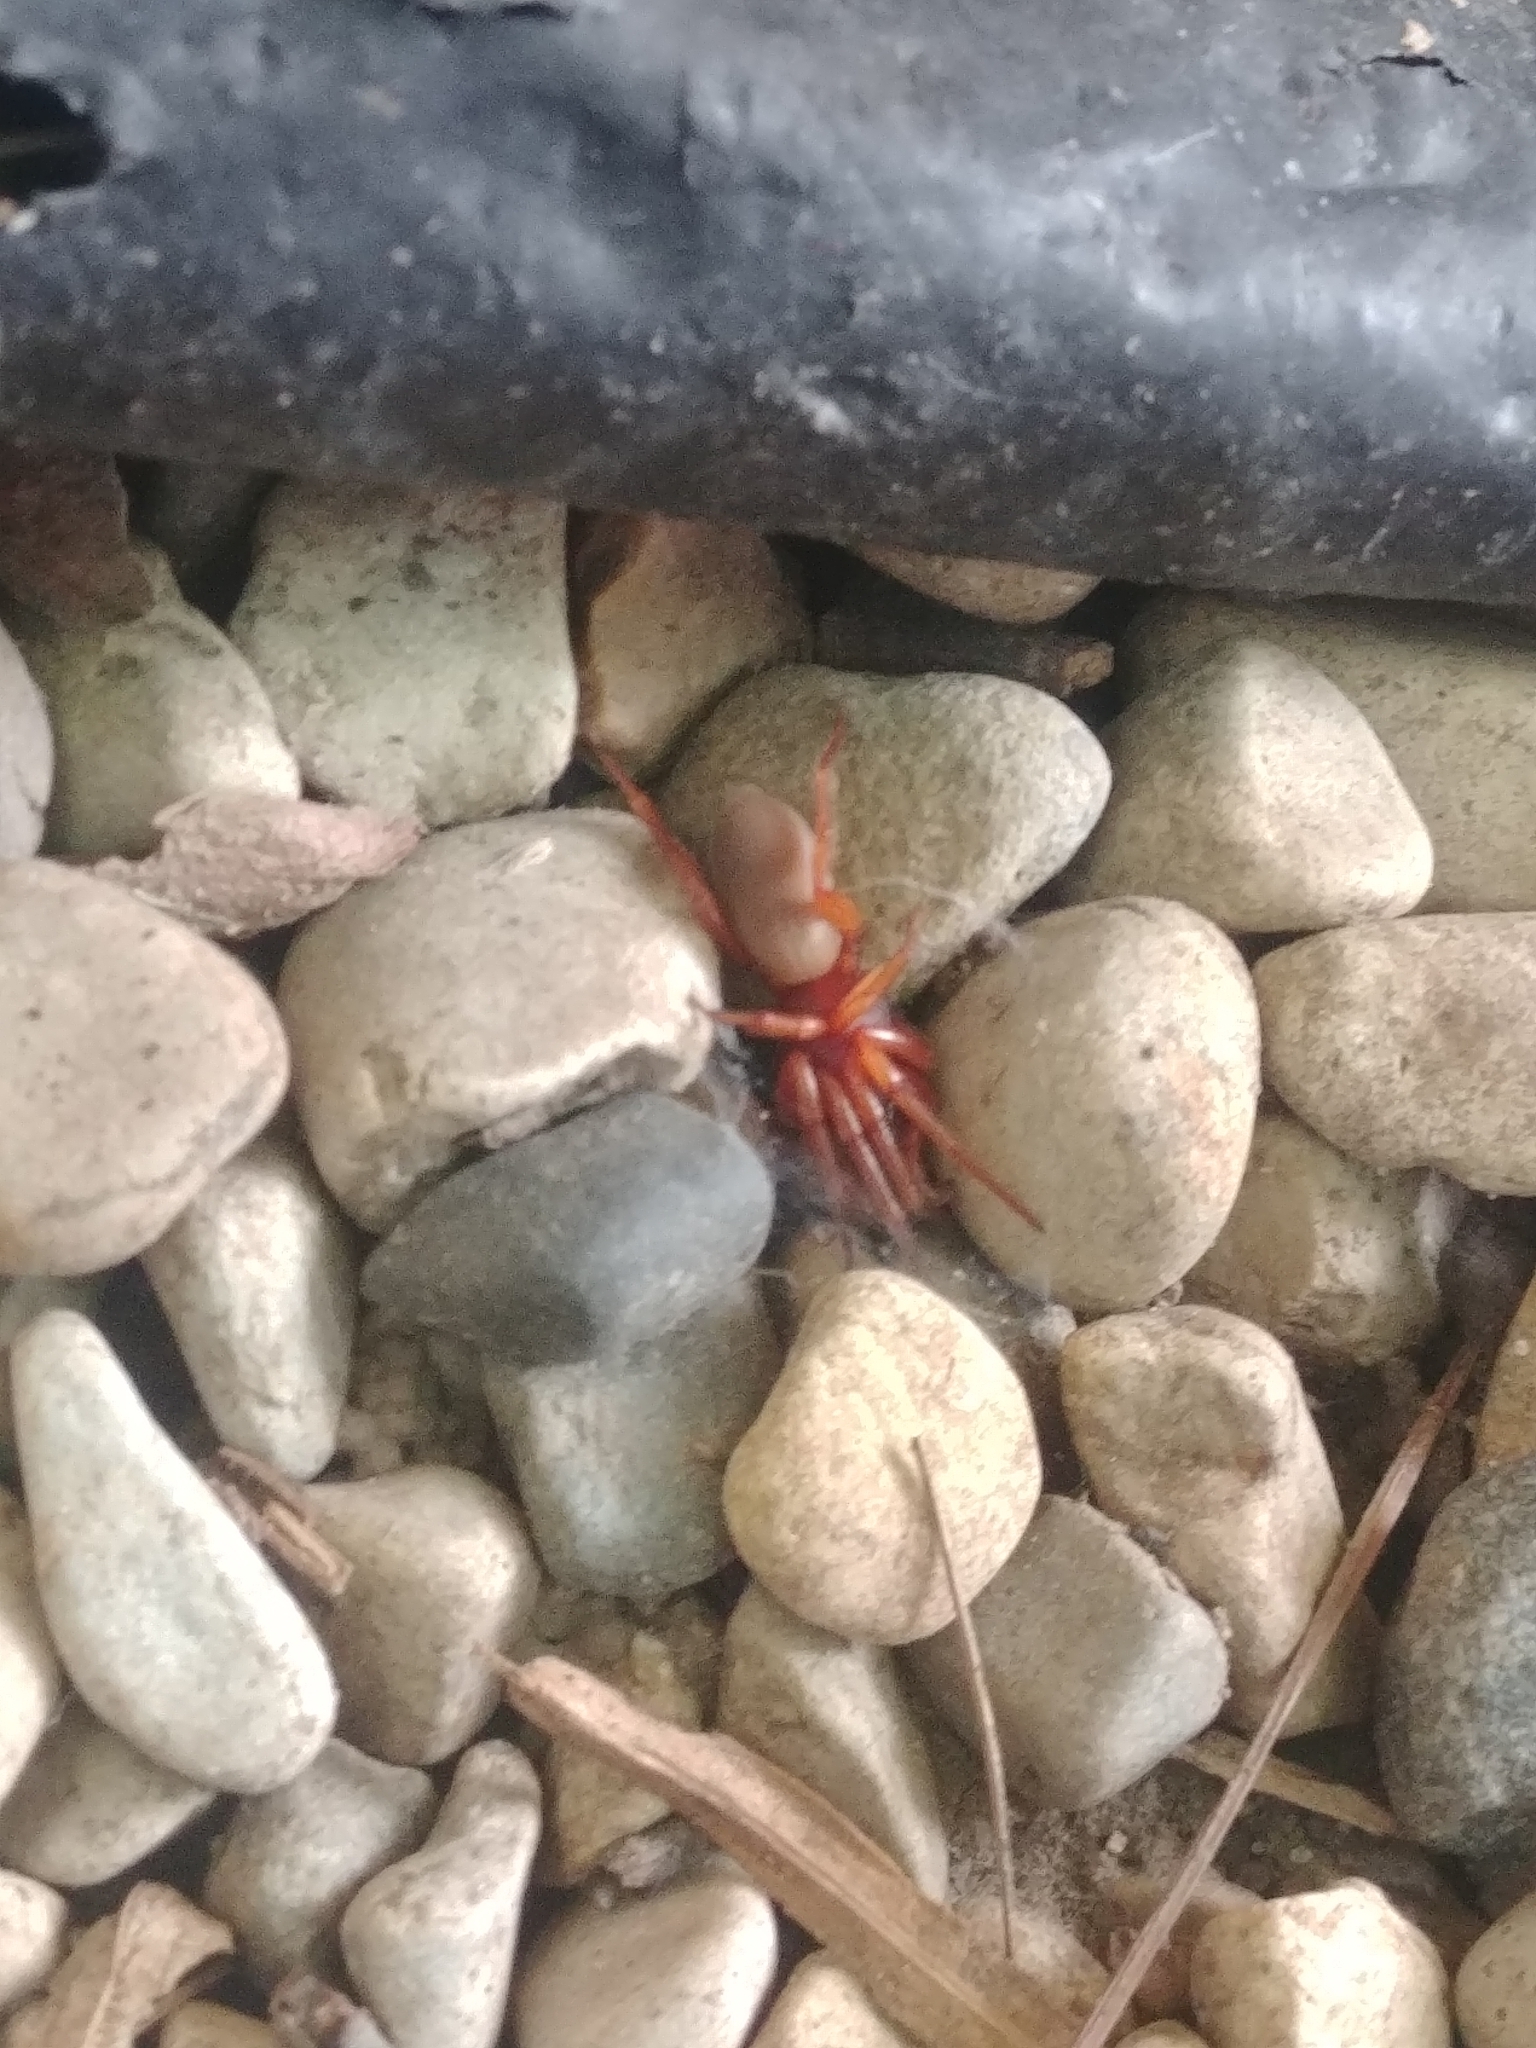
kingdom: Animalia
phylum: Arthropoda
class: Arachnida
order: Araneae
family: Dysderidae
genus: Dysdera
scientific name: Dysdera crocata
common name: Woodlouse spider
